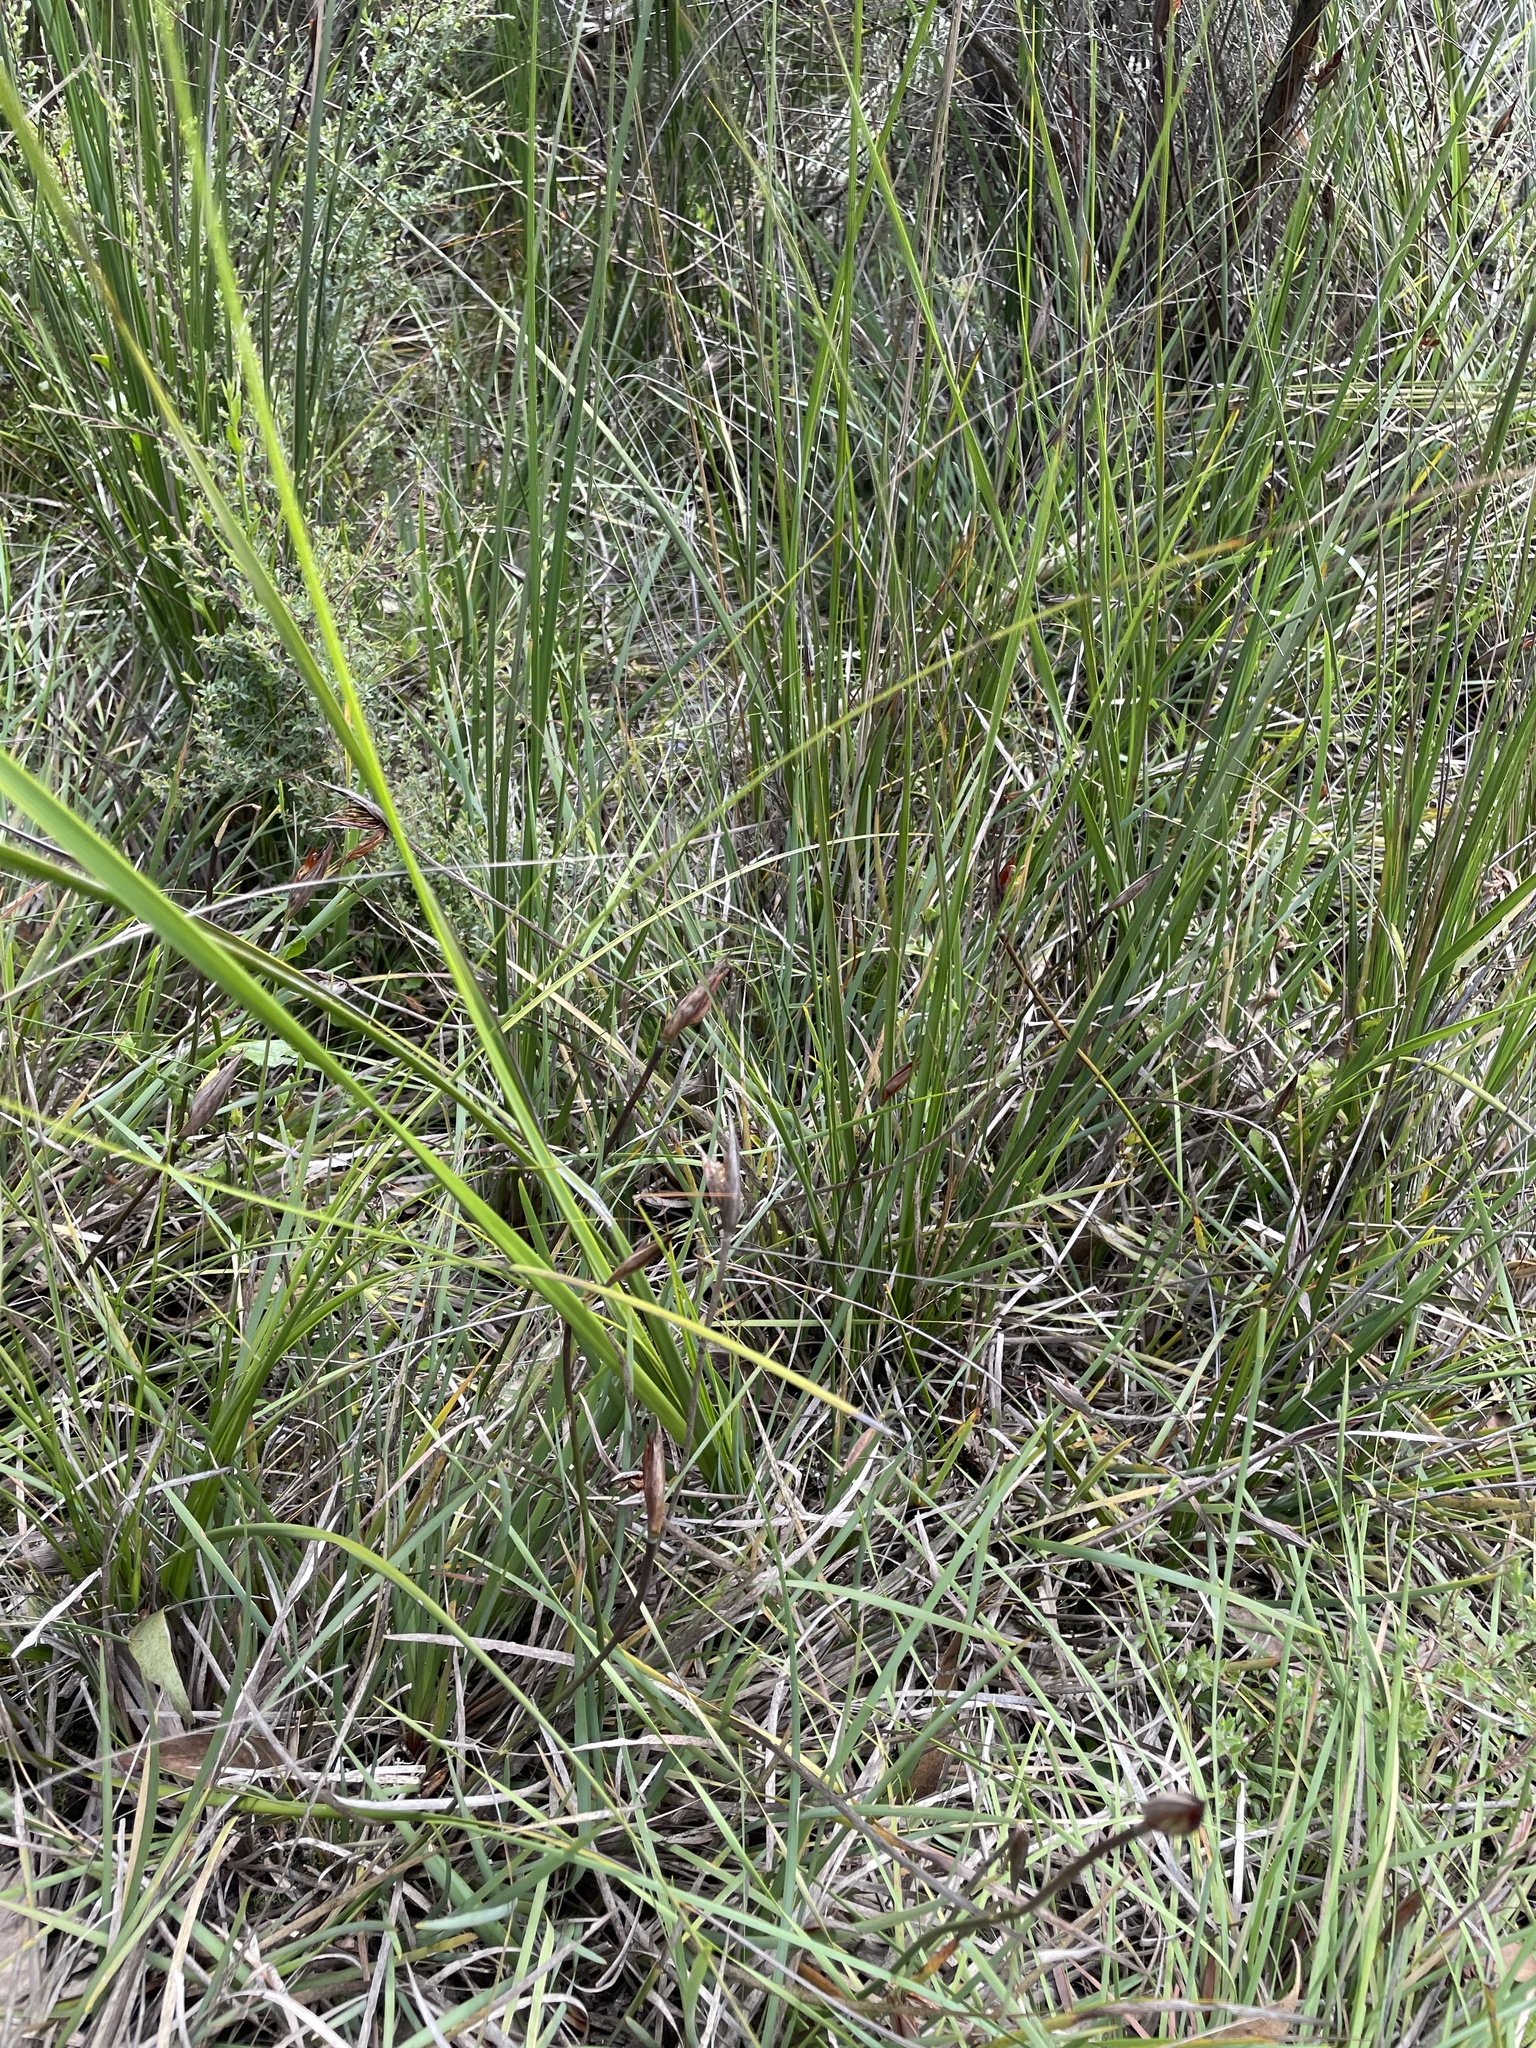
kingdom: Plantae
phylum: Tracheophyta
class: Liliopsida
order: Asparagales
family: Iridaceae
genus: Patersonia
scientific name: Patersonia fragilis
